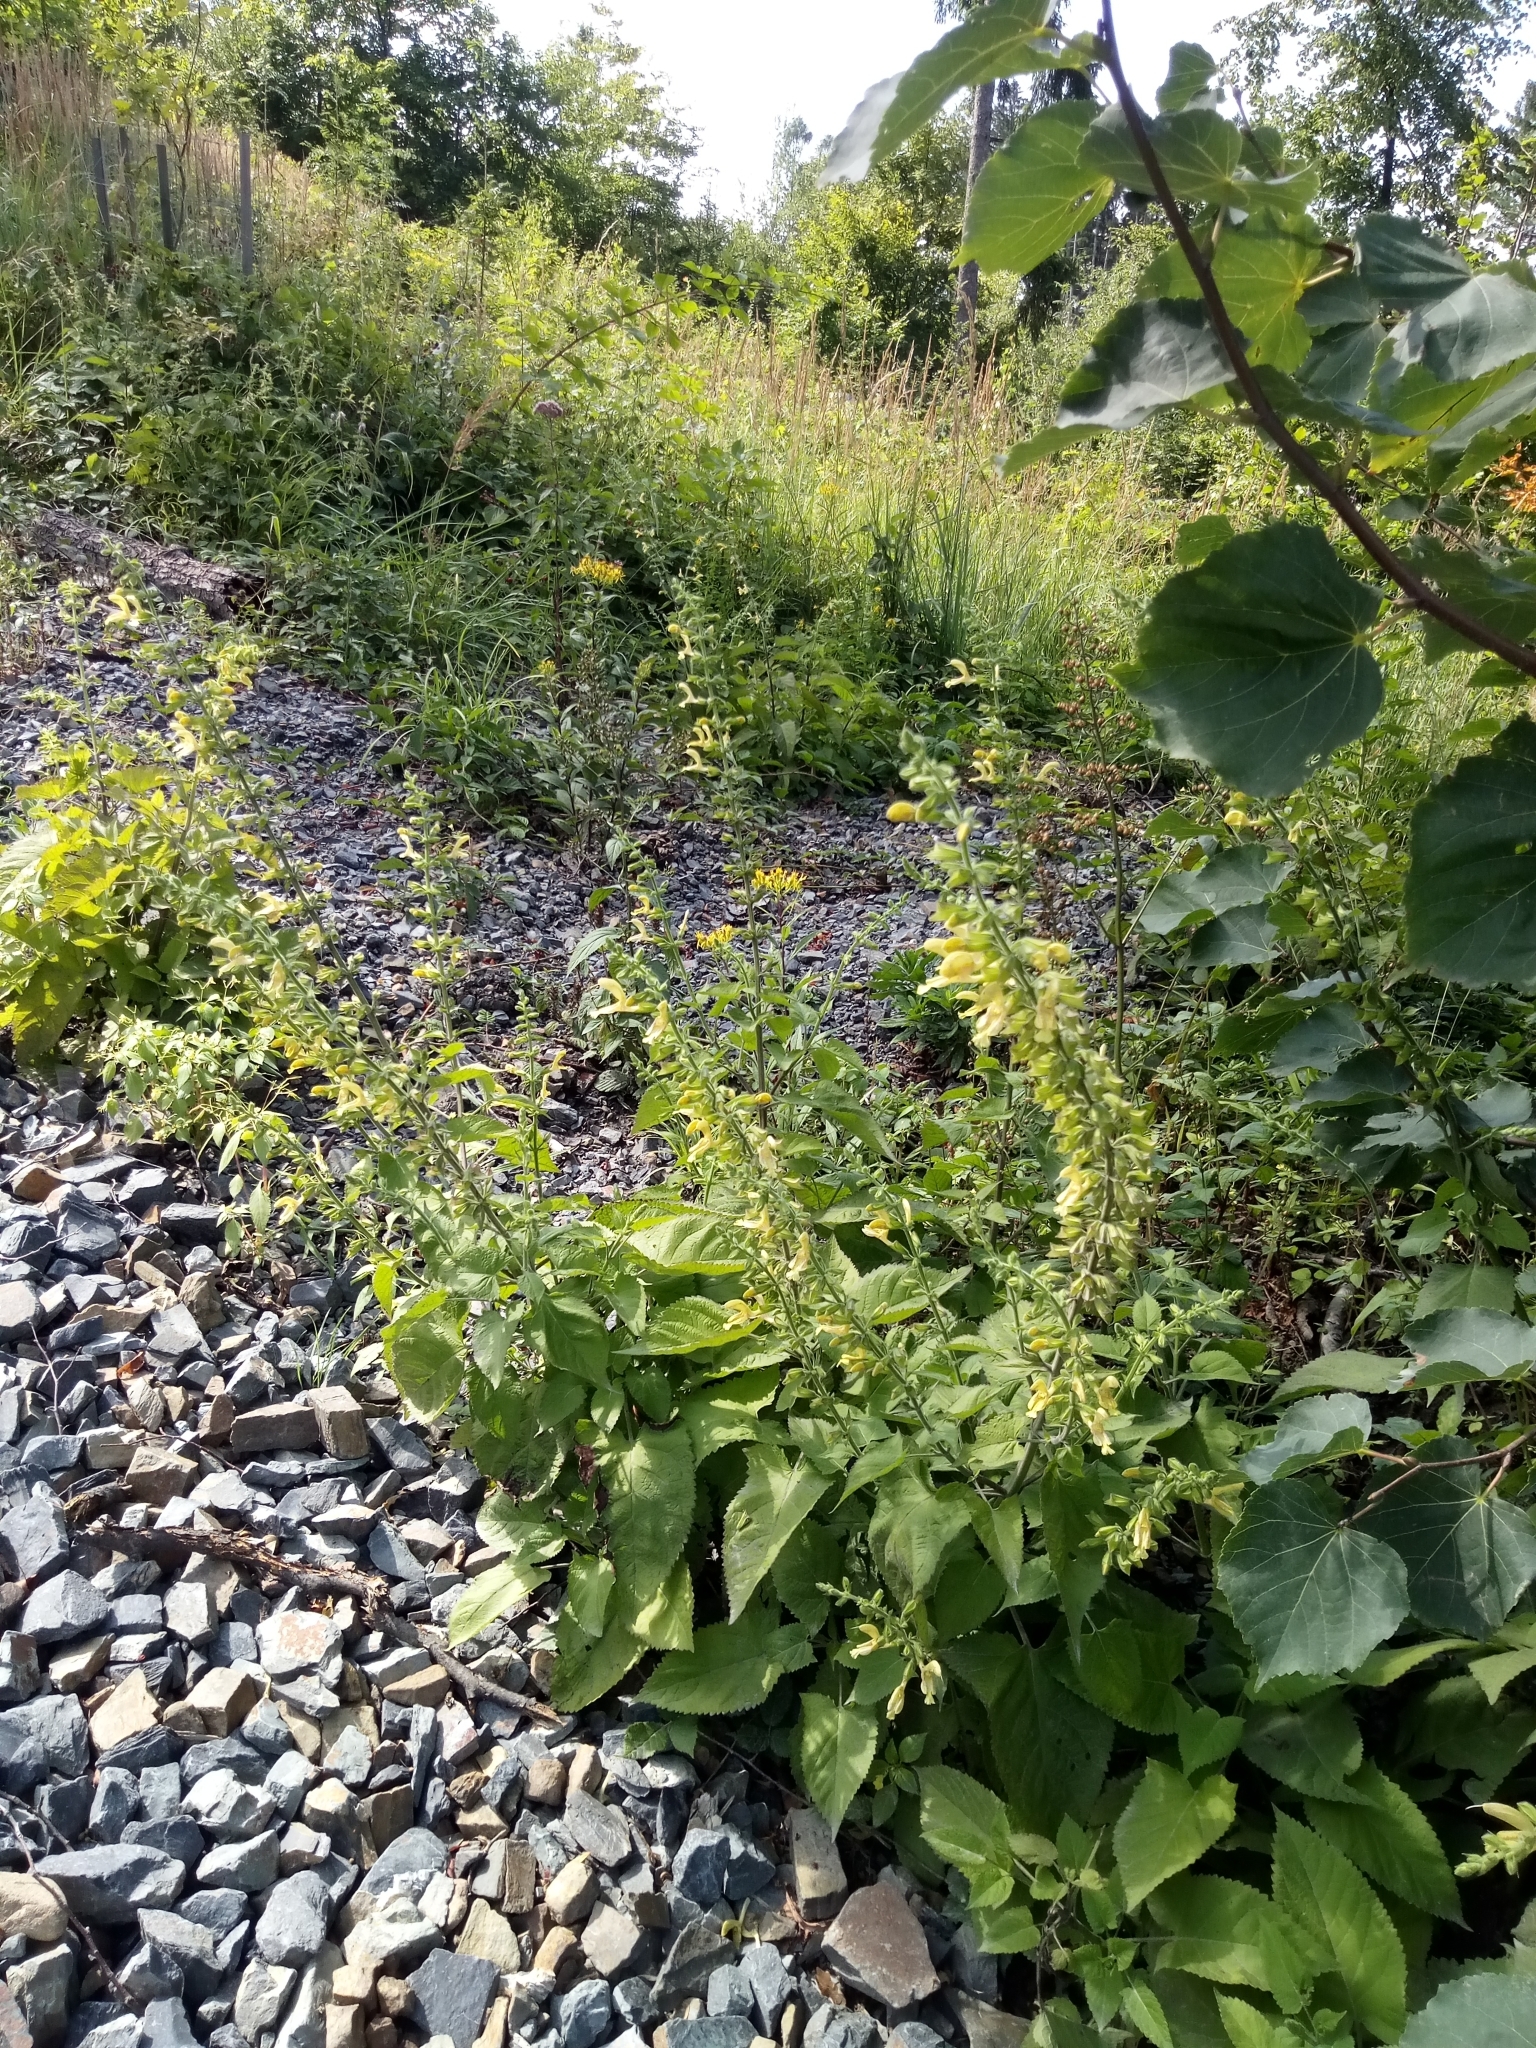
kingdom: Plantae
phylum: Tracheophyta
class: Magnoliopsida
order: Lamiales
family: Lamiaceae
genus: Salvia
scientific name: Salvia glutinosa
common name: Sticky clary
